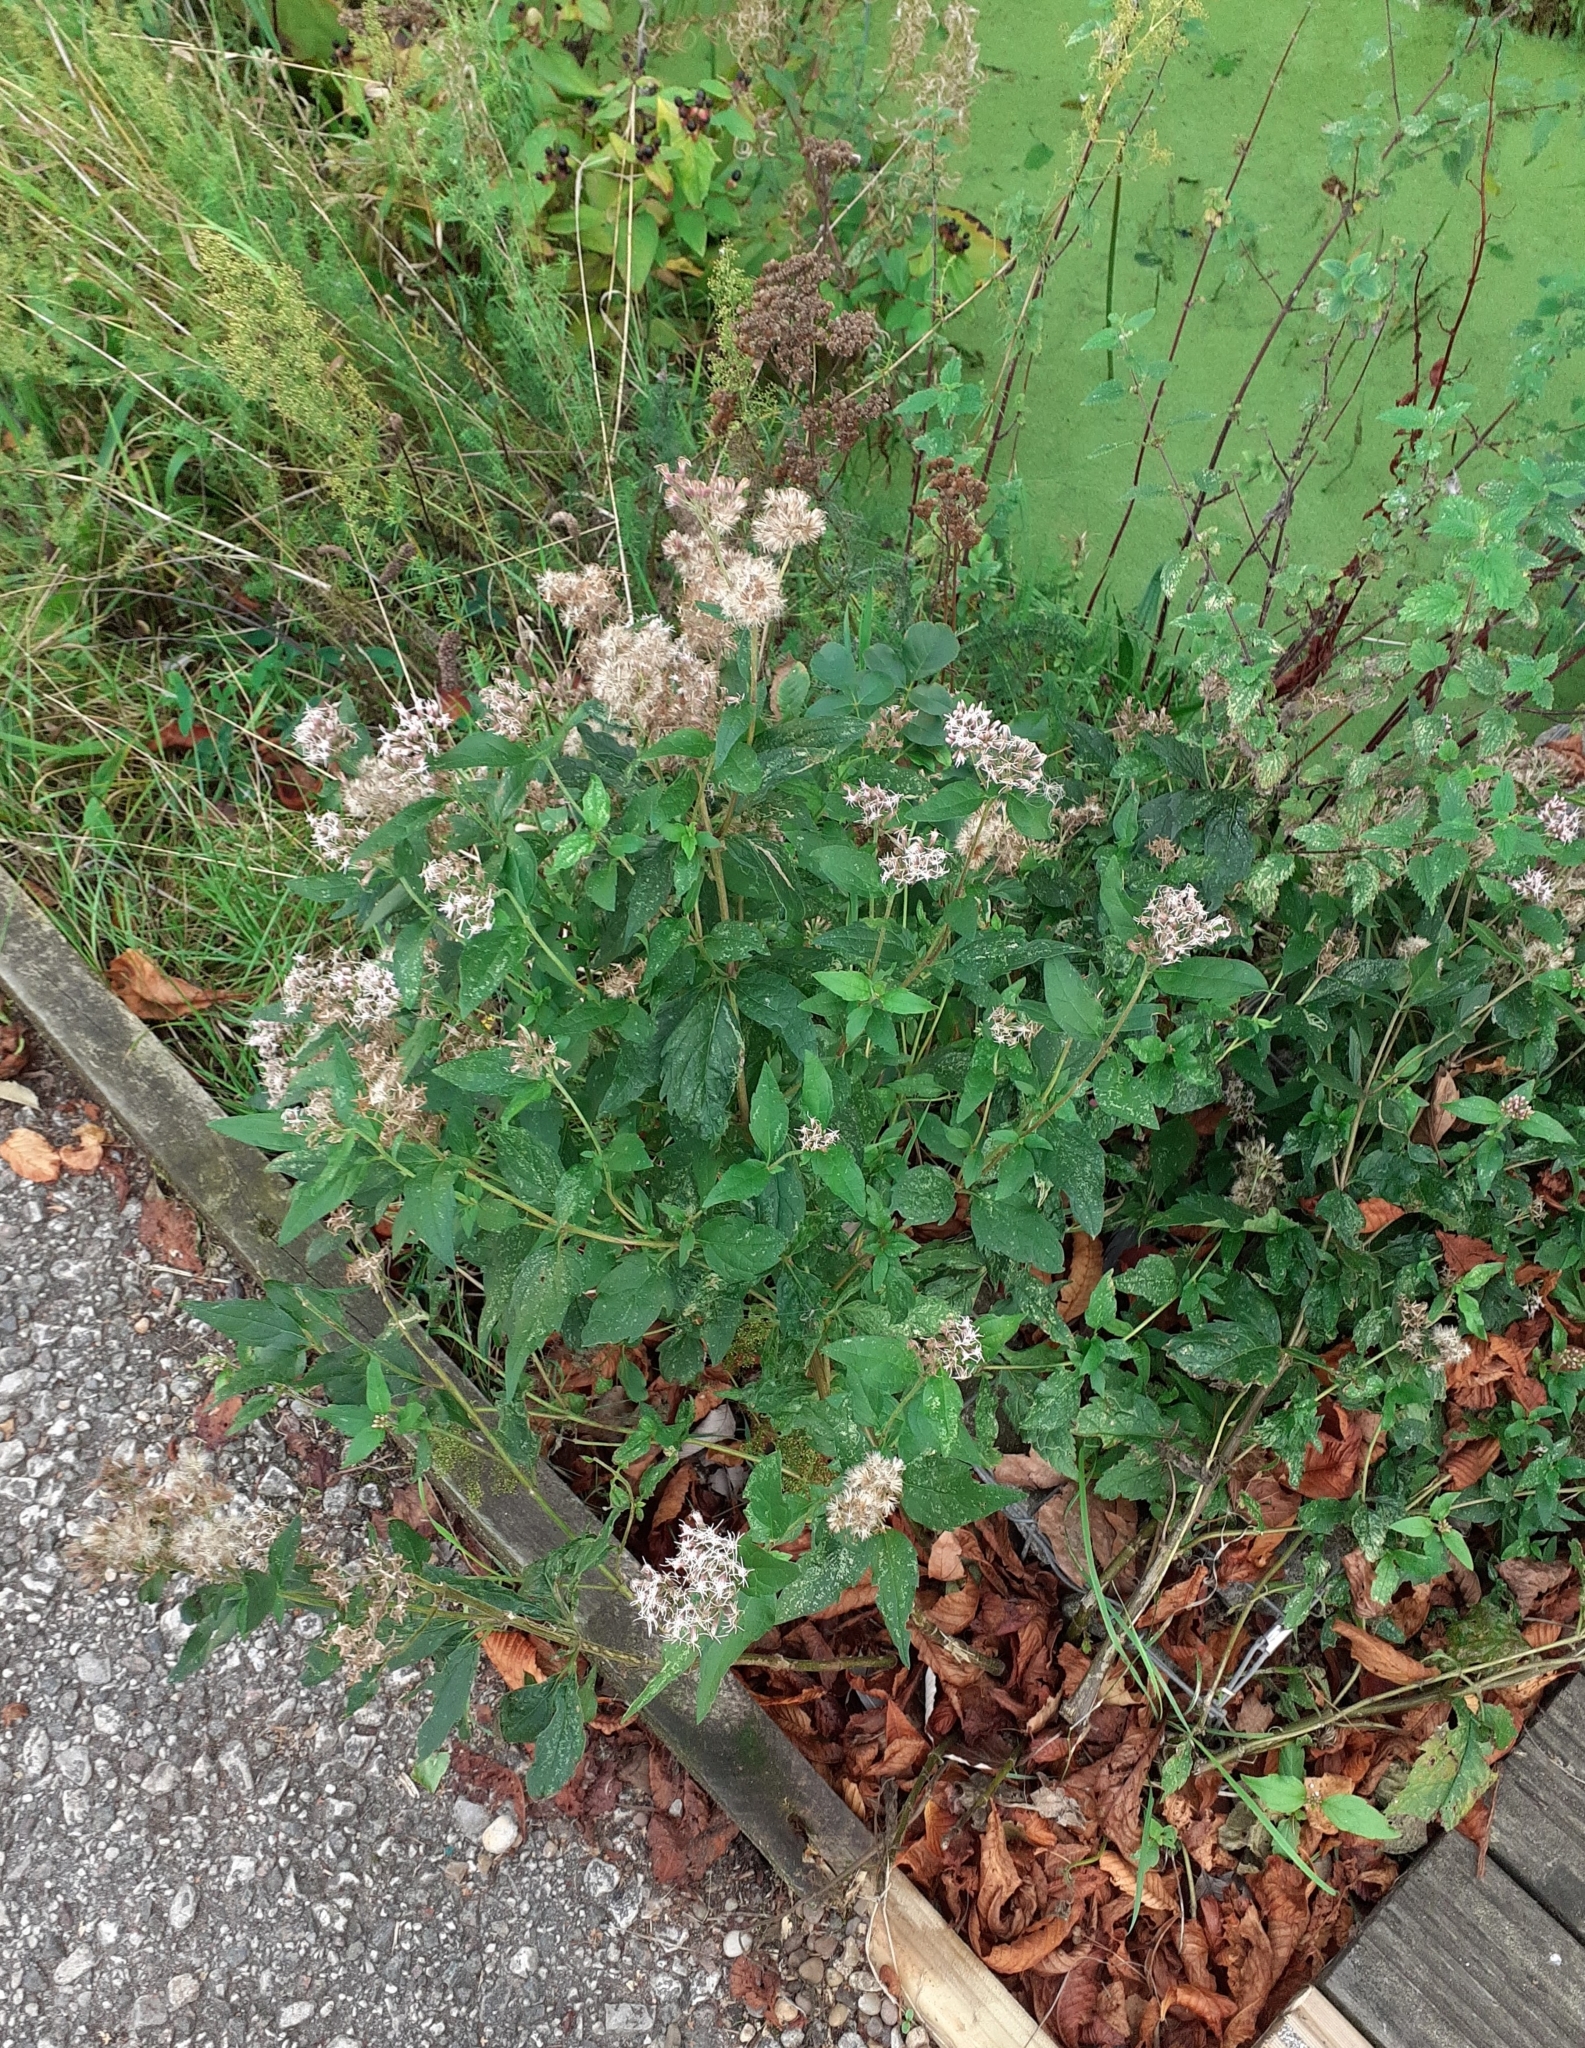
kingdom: Plantae
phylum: Tracheophyta
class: Magnoliopsida
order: Asterales
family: Asteraceae
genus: Eupatorium
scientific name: Eupatorium cannabinum
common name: Hemp-agrimony
